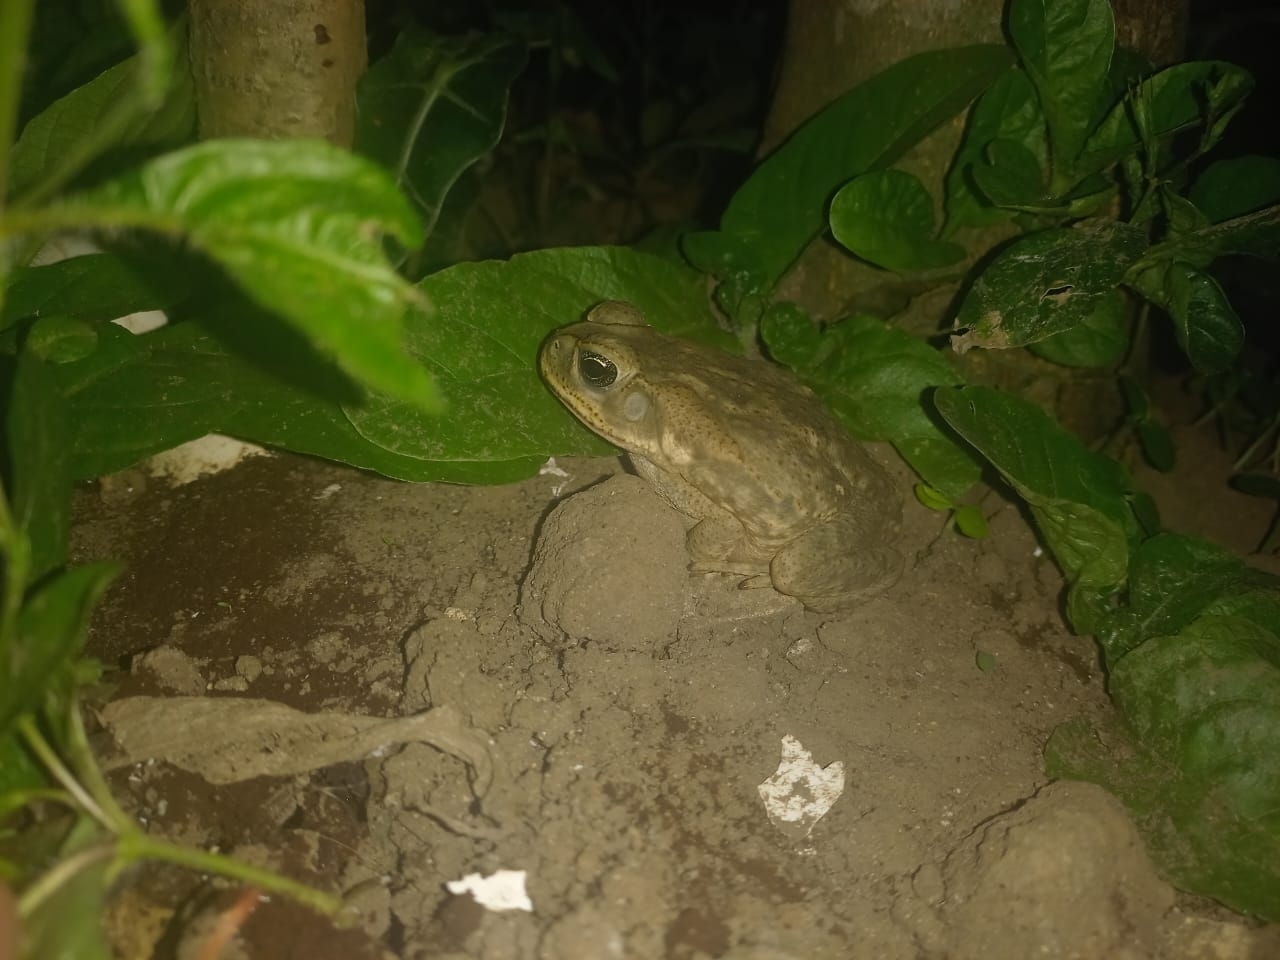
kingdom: Animalia
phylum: Chordata
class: Amphibia
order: Anura
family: Bufonidae
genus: Rhinella
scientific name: Rhinella horribilis
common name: Mesoamerican cane toad
